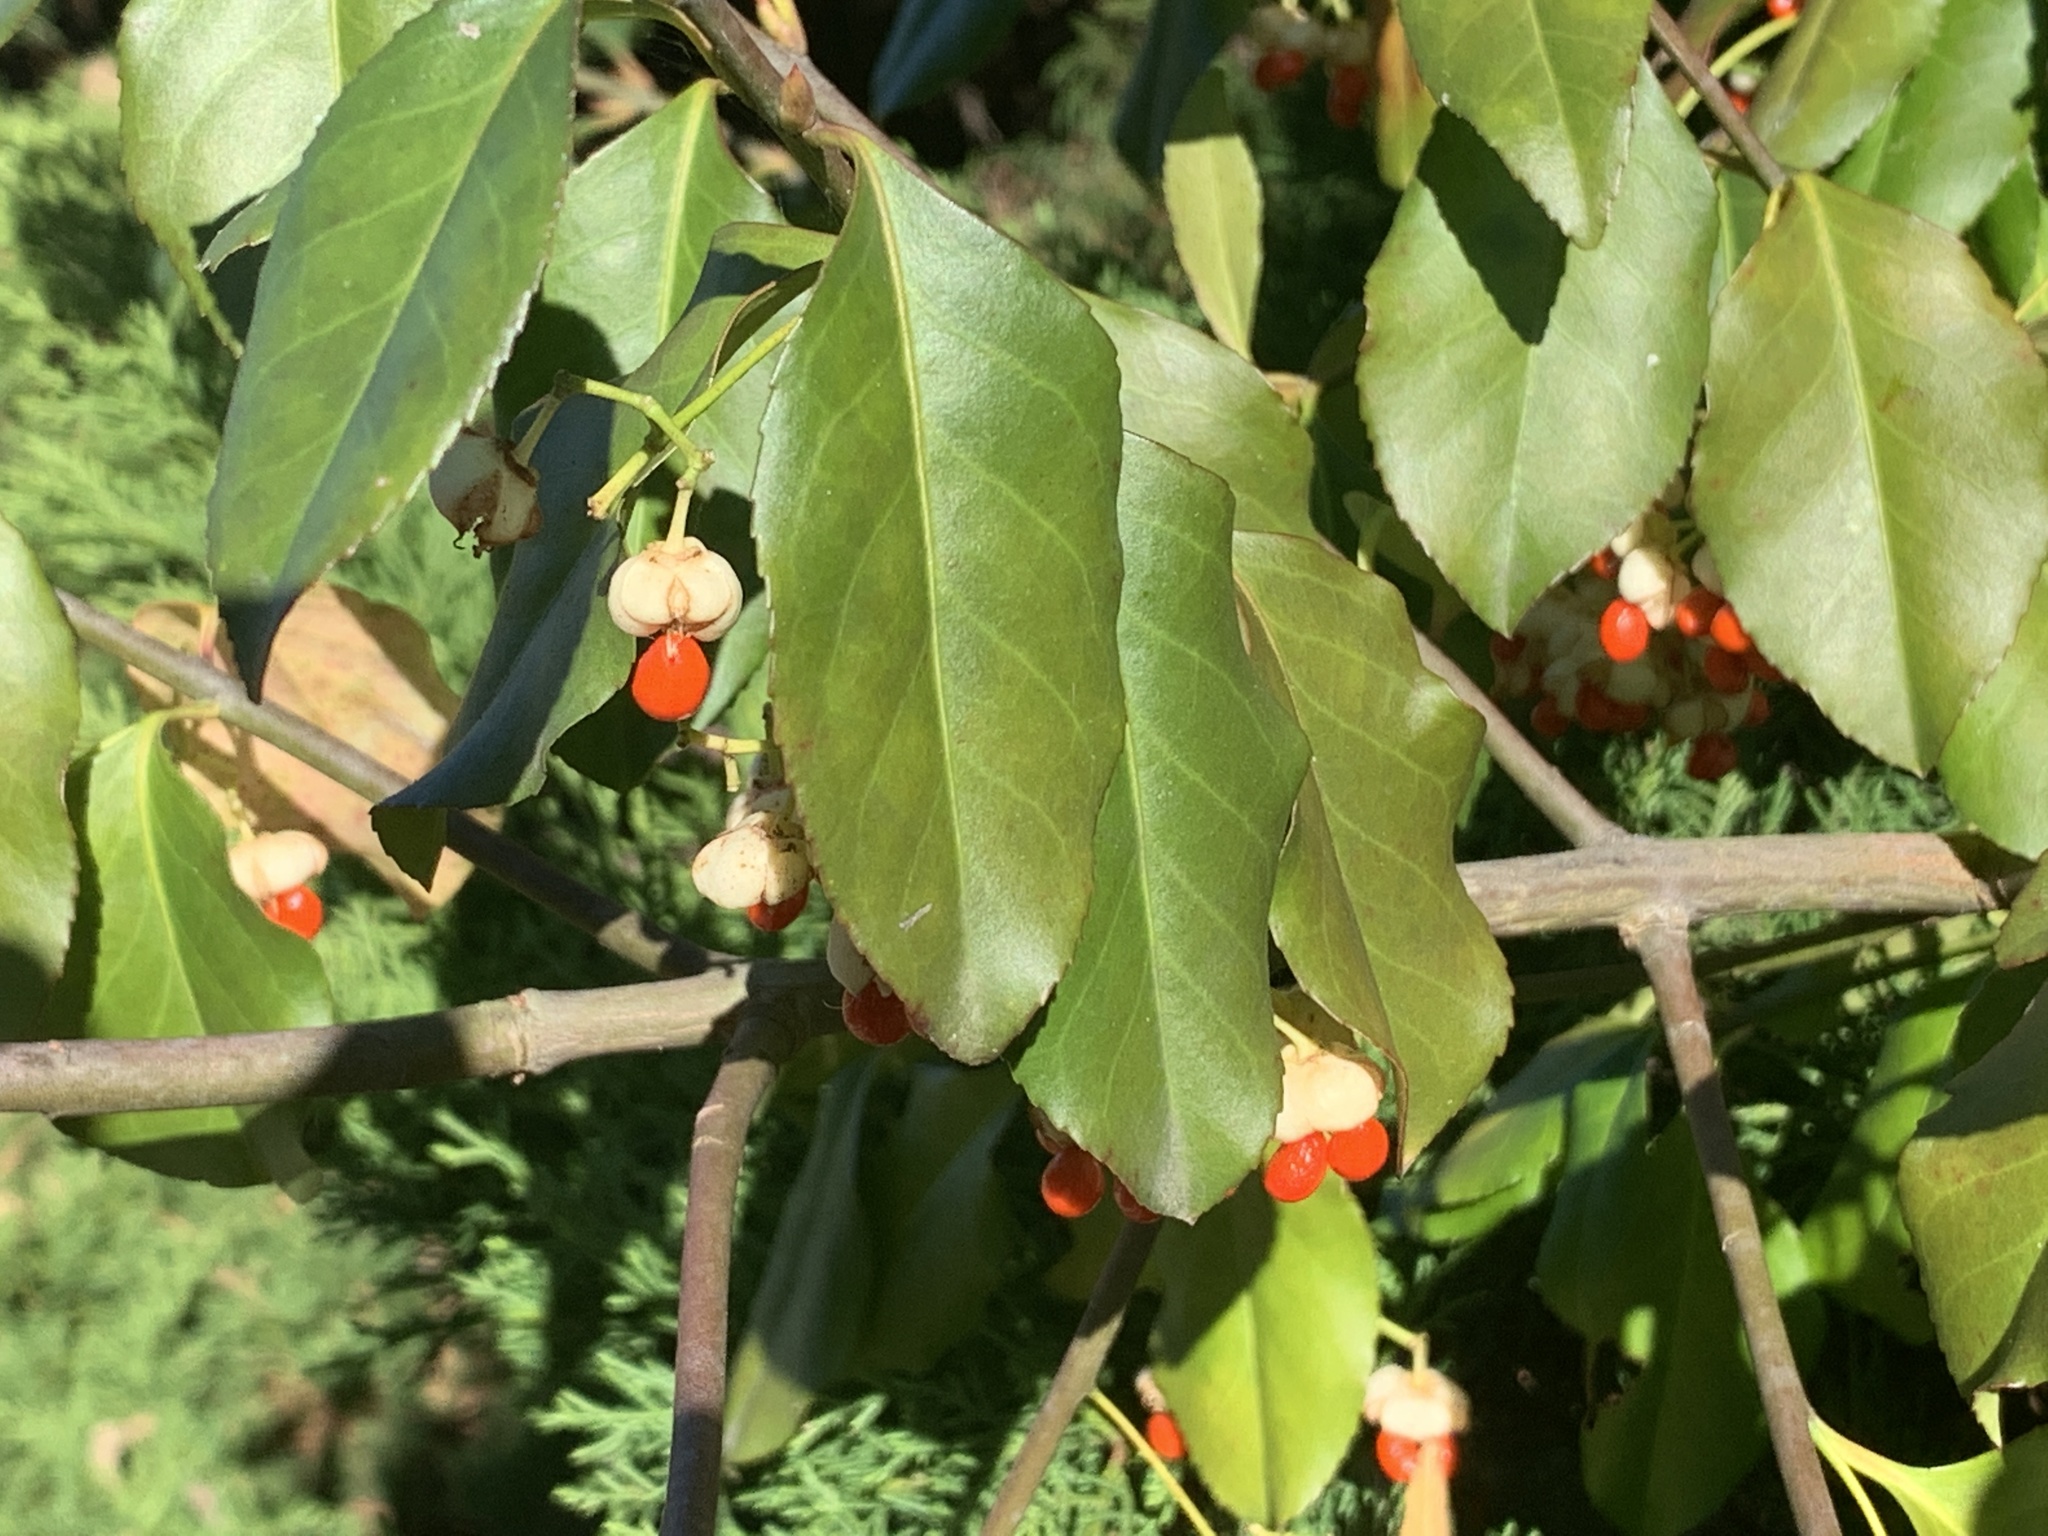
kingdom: Plantae
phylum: Tracheophyta
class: Magnoliopsida
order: Celastrales
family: Celastraceae
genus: Euonymus
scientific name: Euonymus fortunei
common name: Climbing euonymus
